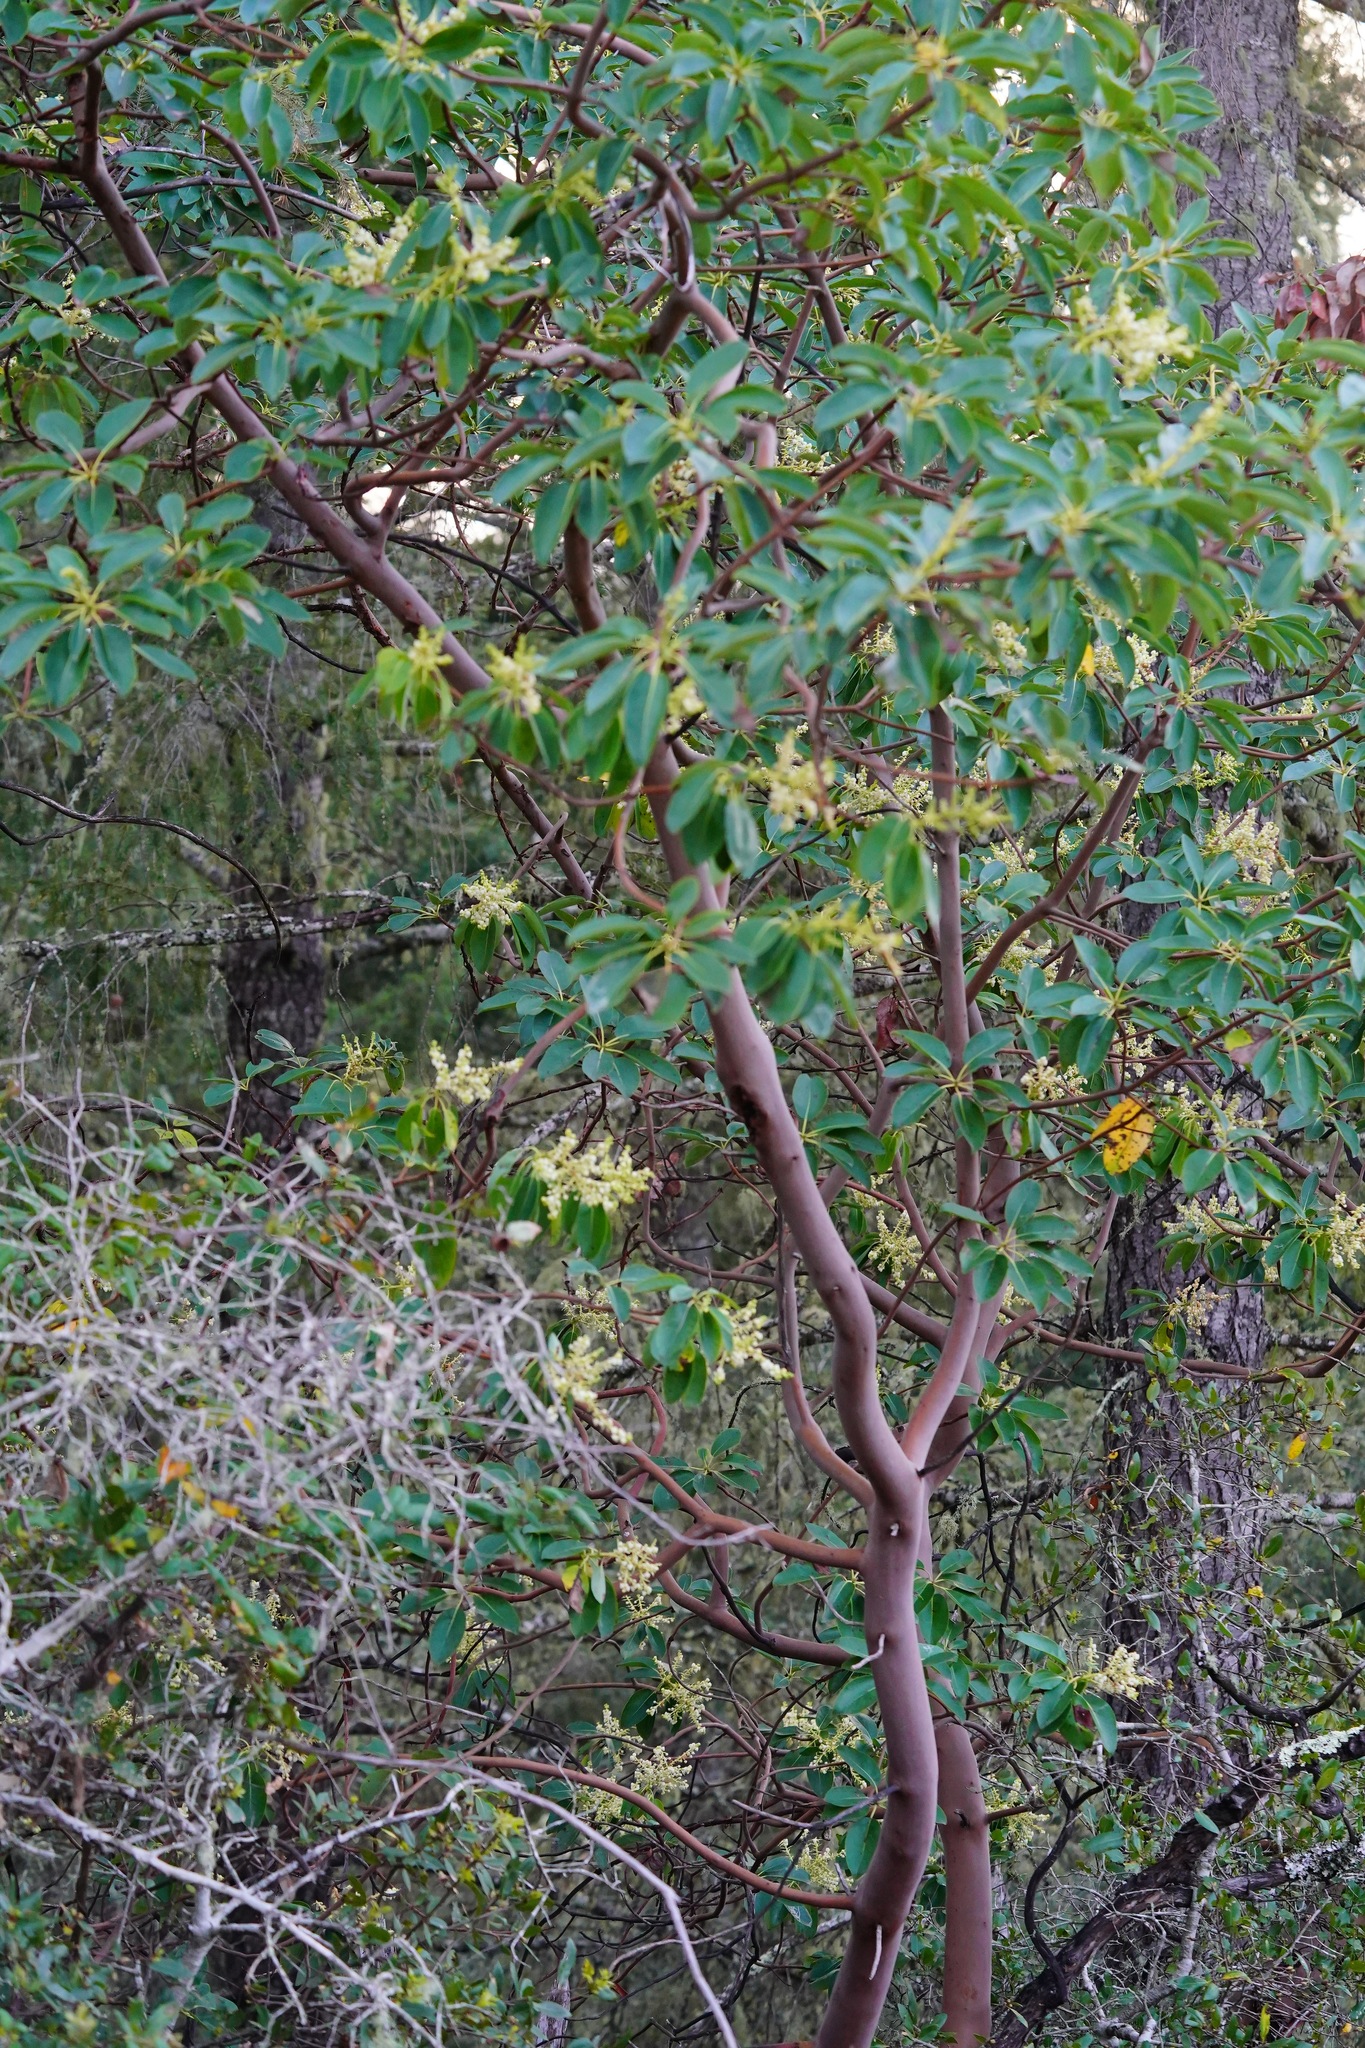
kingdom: Plantae
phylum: Tracheophyta
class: Magnoliopsida
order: Ericales
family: Ericaceae
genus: Arbutus
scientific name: Arbutus menziesii
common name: Pacific madrone
